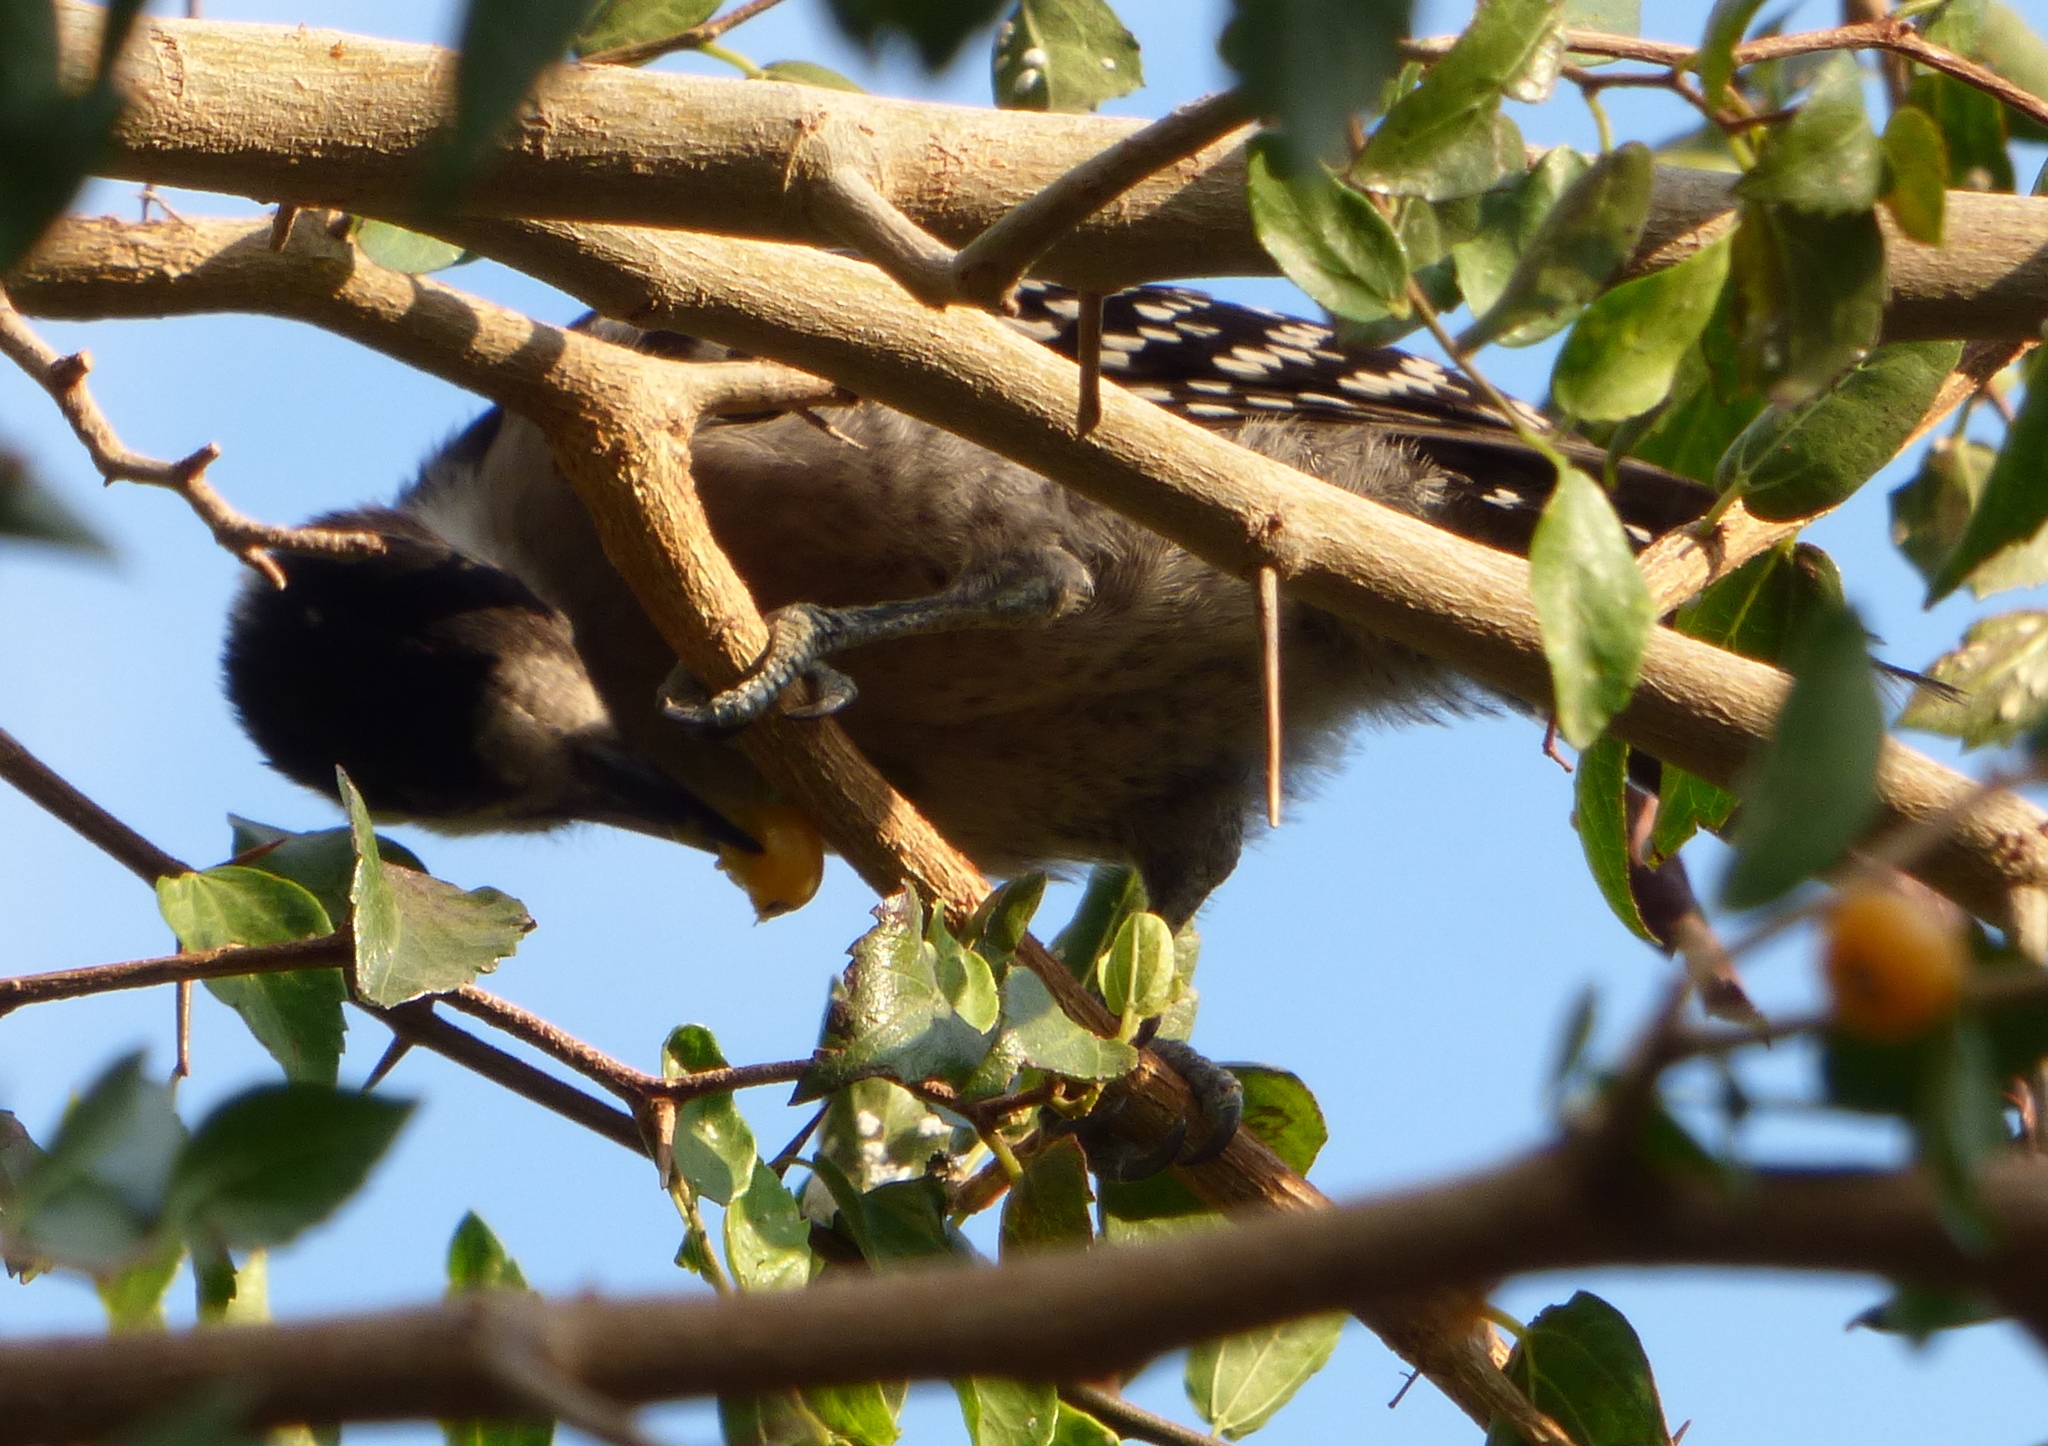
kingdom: Animalia
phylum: Chordata
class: Aves
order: Piciformes
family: Picidae
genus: Melanerpes
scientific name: Melanerpes cactorum
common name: White-fronted woodpecker
